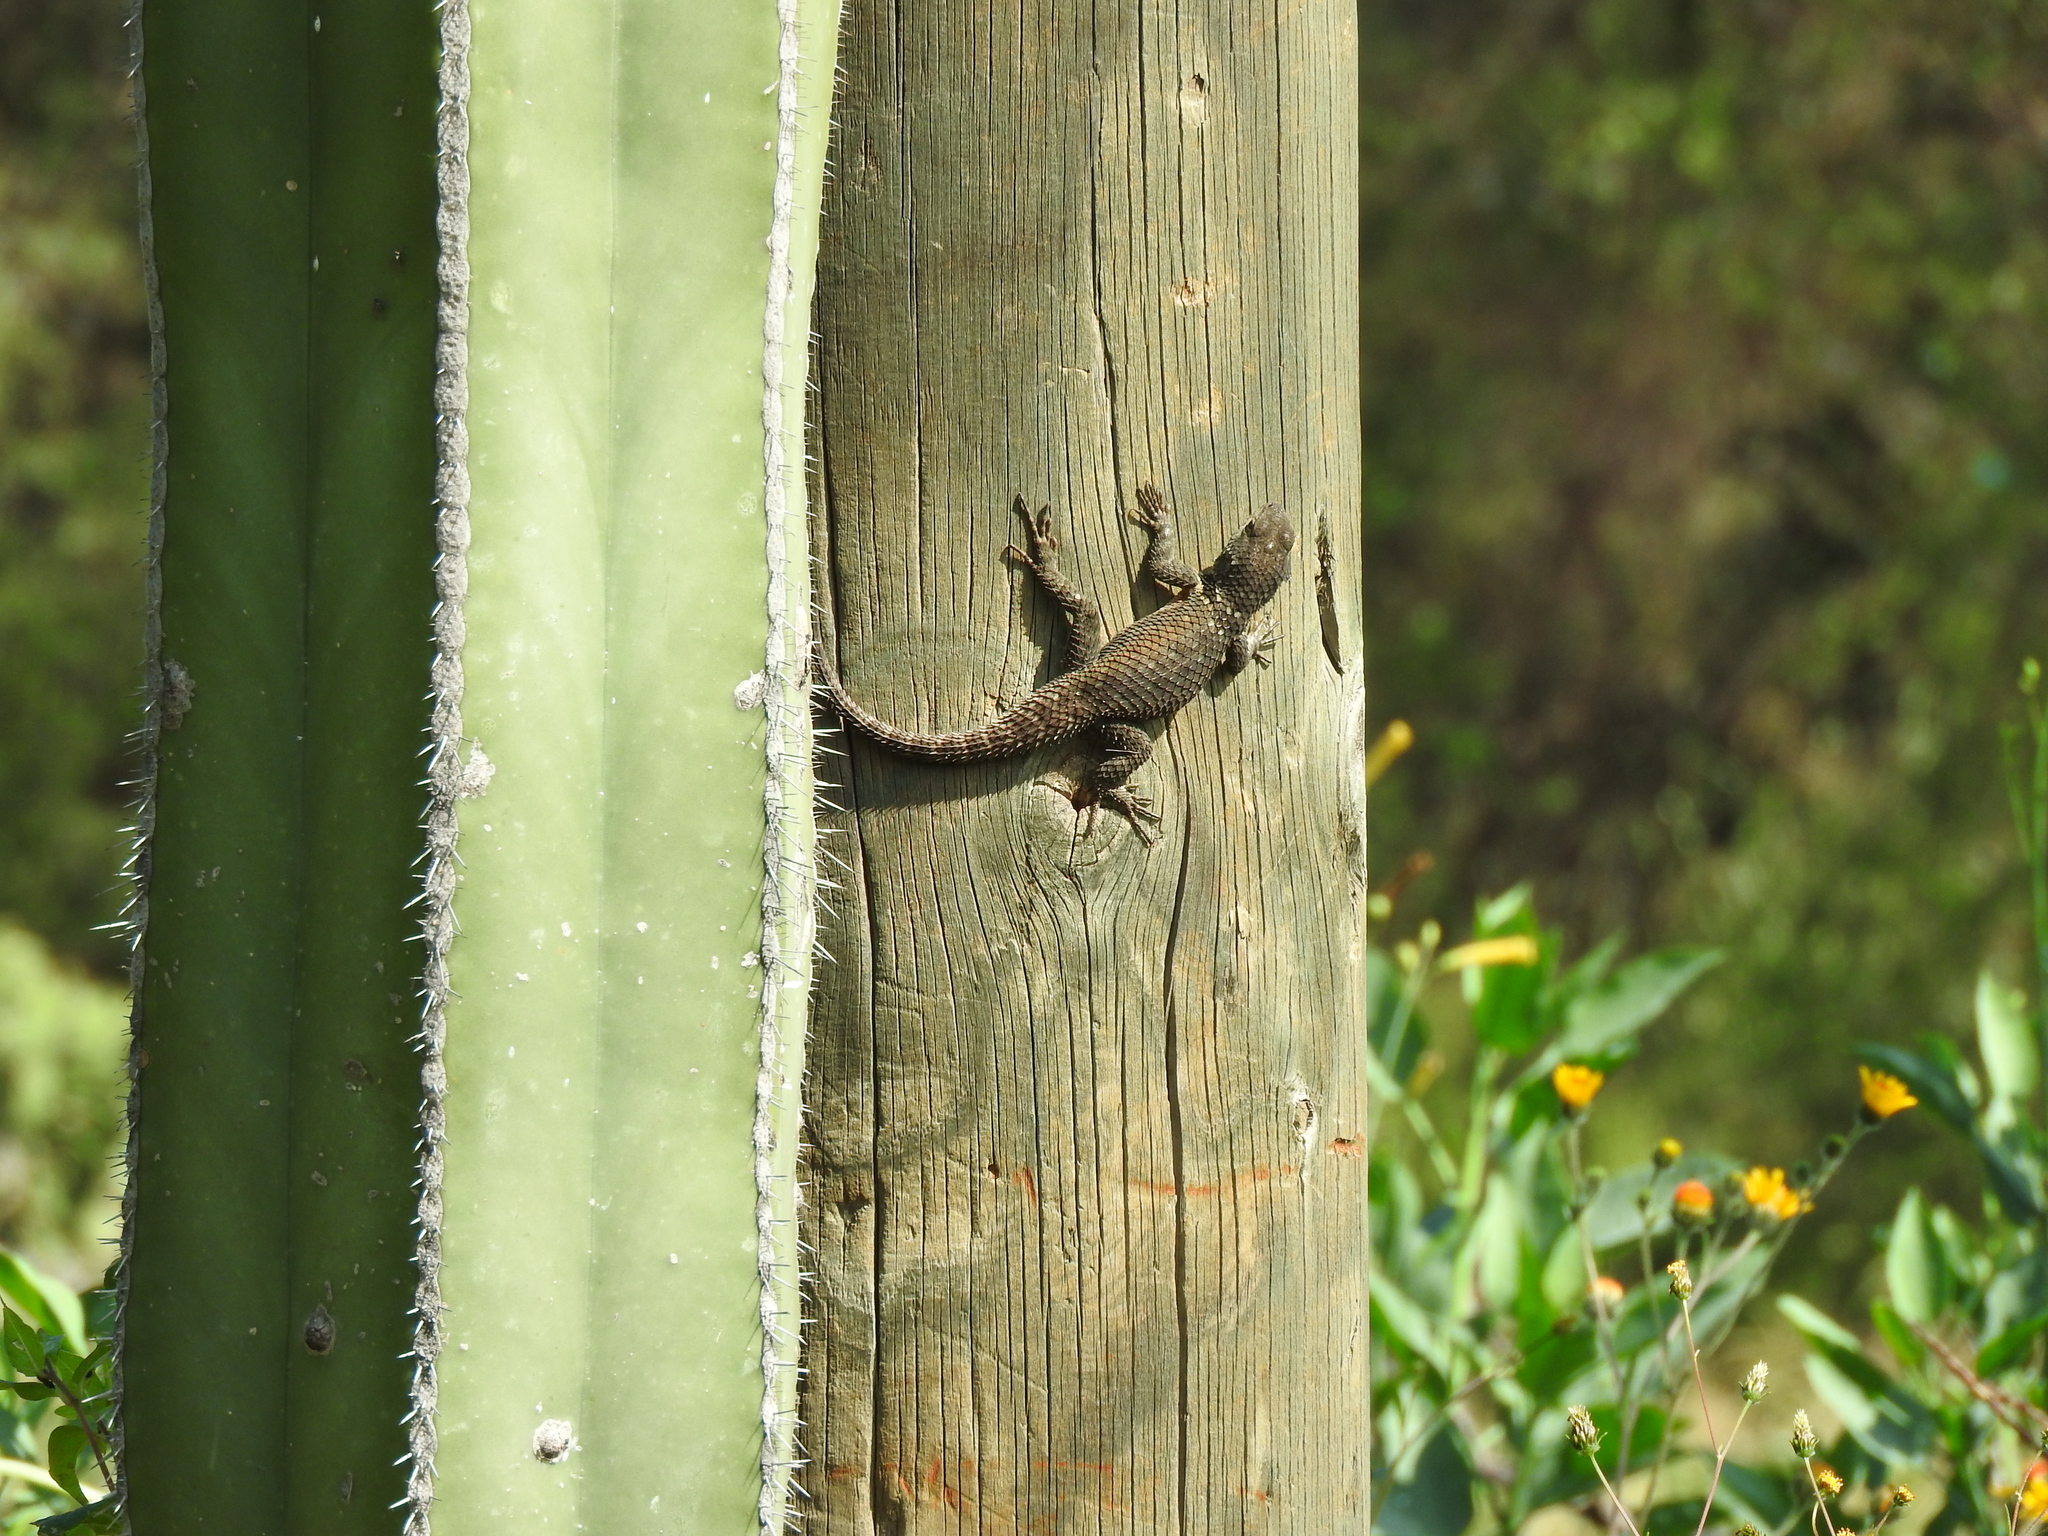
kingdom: Animalia
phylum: Chordata
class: Squamata
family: Phrynosomatidae
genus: Sceloporus
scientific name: Sceloporus torquatus
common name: Central plateau torquate lizard [melanogaster]
